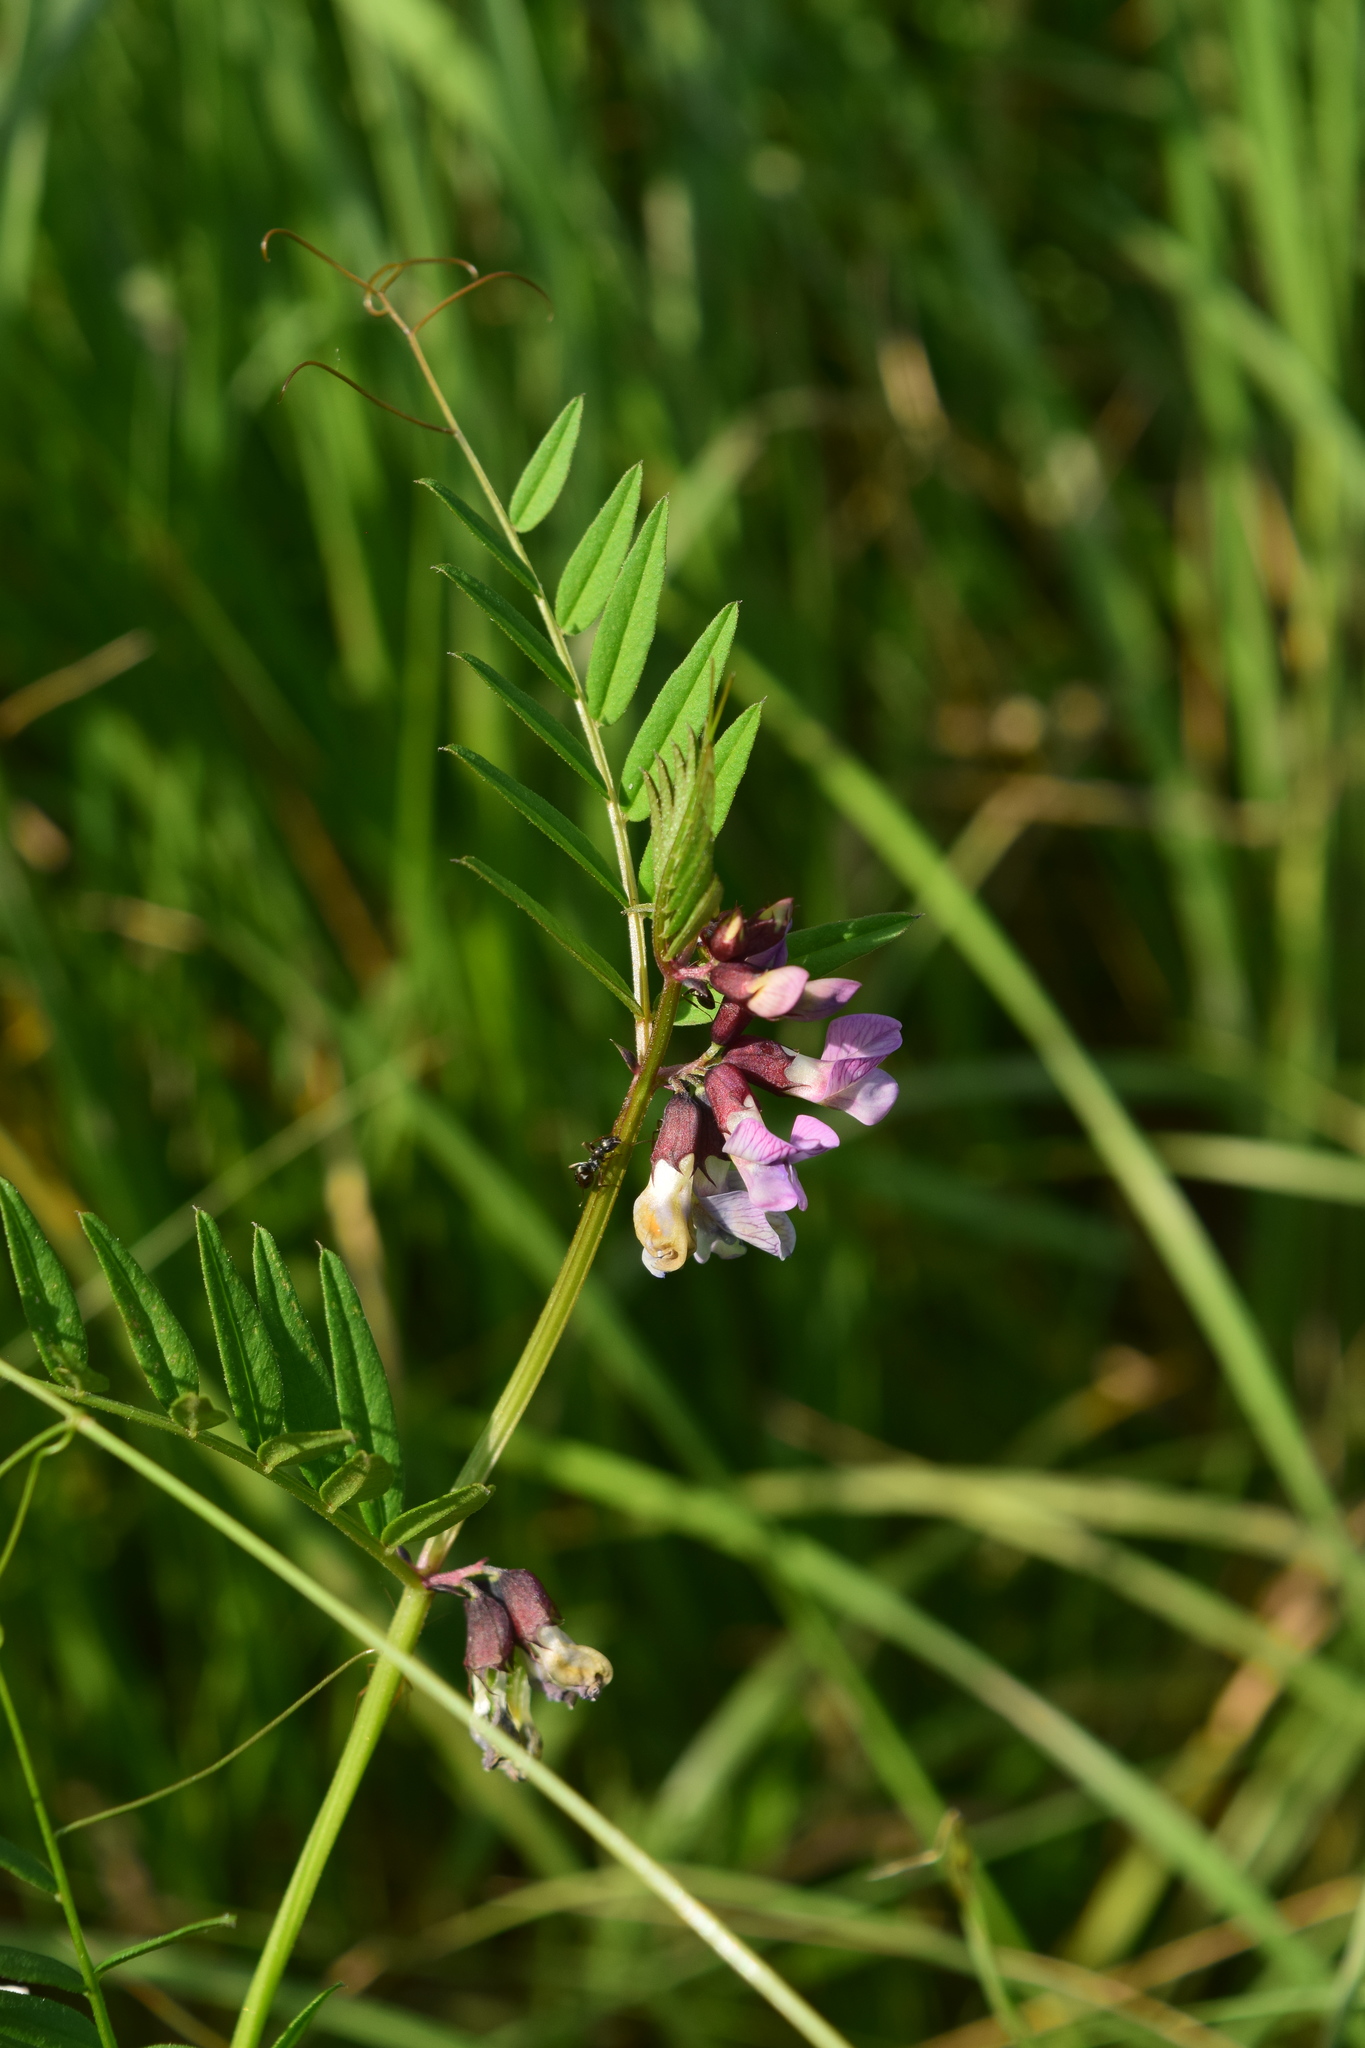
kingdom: Plantae
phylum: Tracheophyta
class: Magnoliopsida
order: Fabales
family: Fabaceae
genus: Vicia
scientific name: Vicia sepium
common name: Bush vetch
